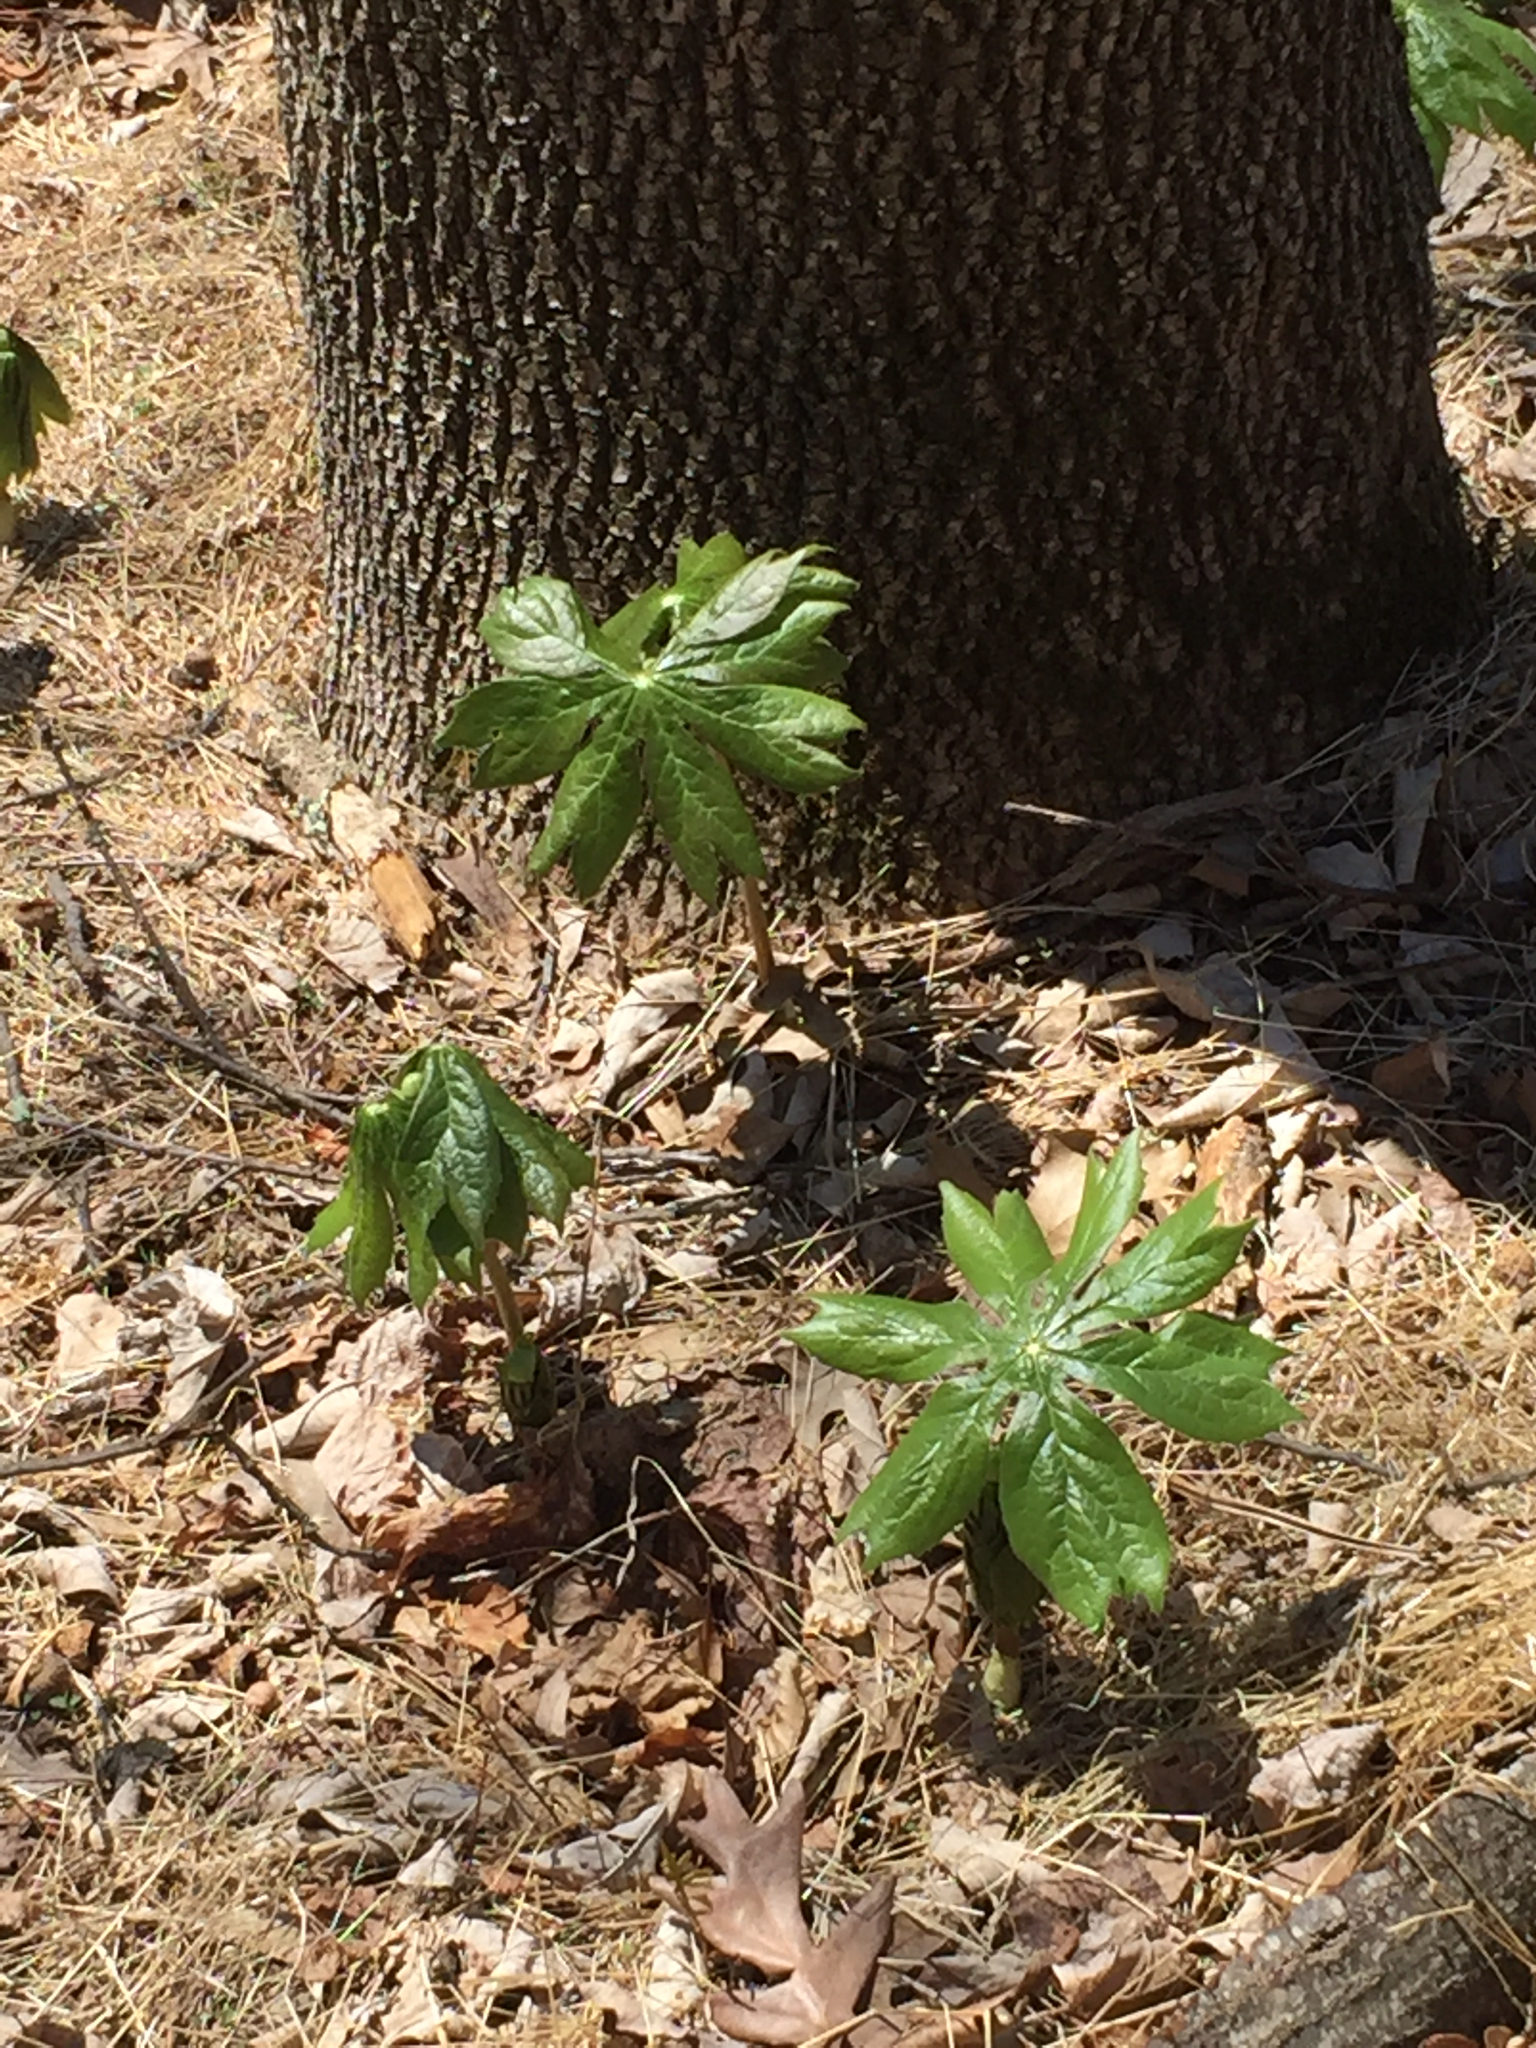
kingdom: Plantae
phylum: Tracheophyta
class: Magnoliopsida
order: Ranunculales
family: Berberidaceae
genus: Podophyllum
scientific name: Podophyllum peltatum
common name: Wild mandrake
